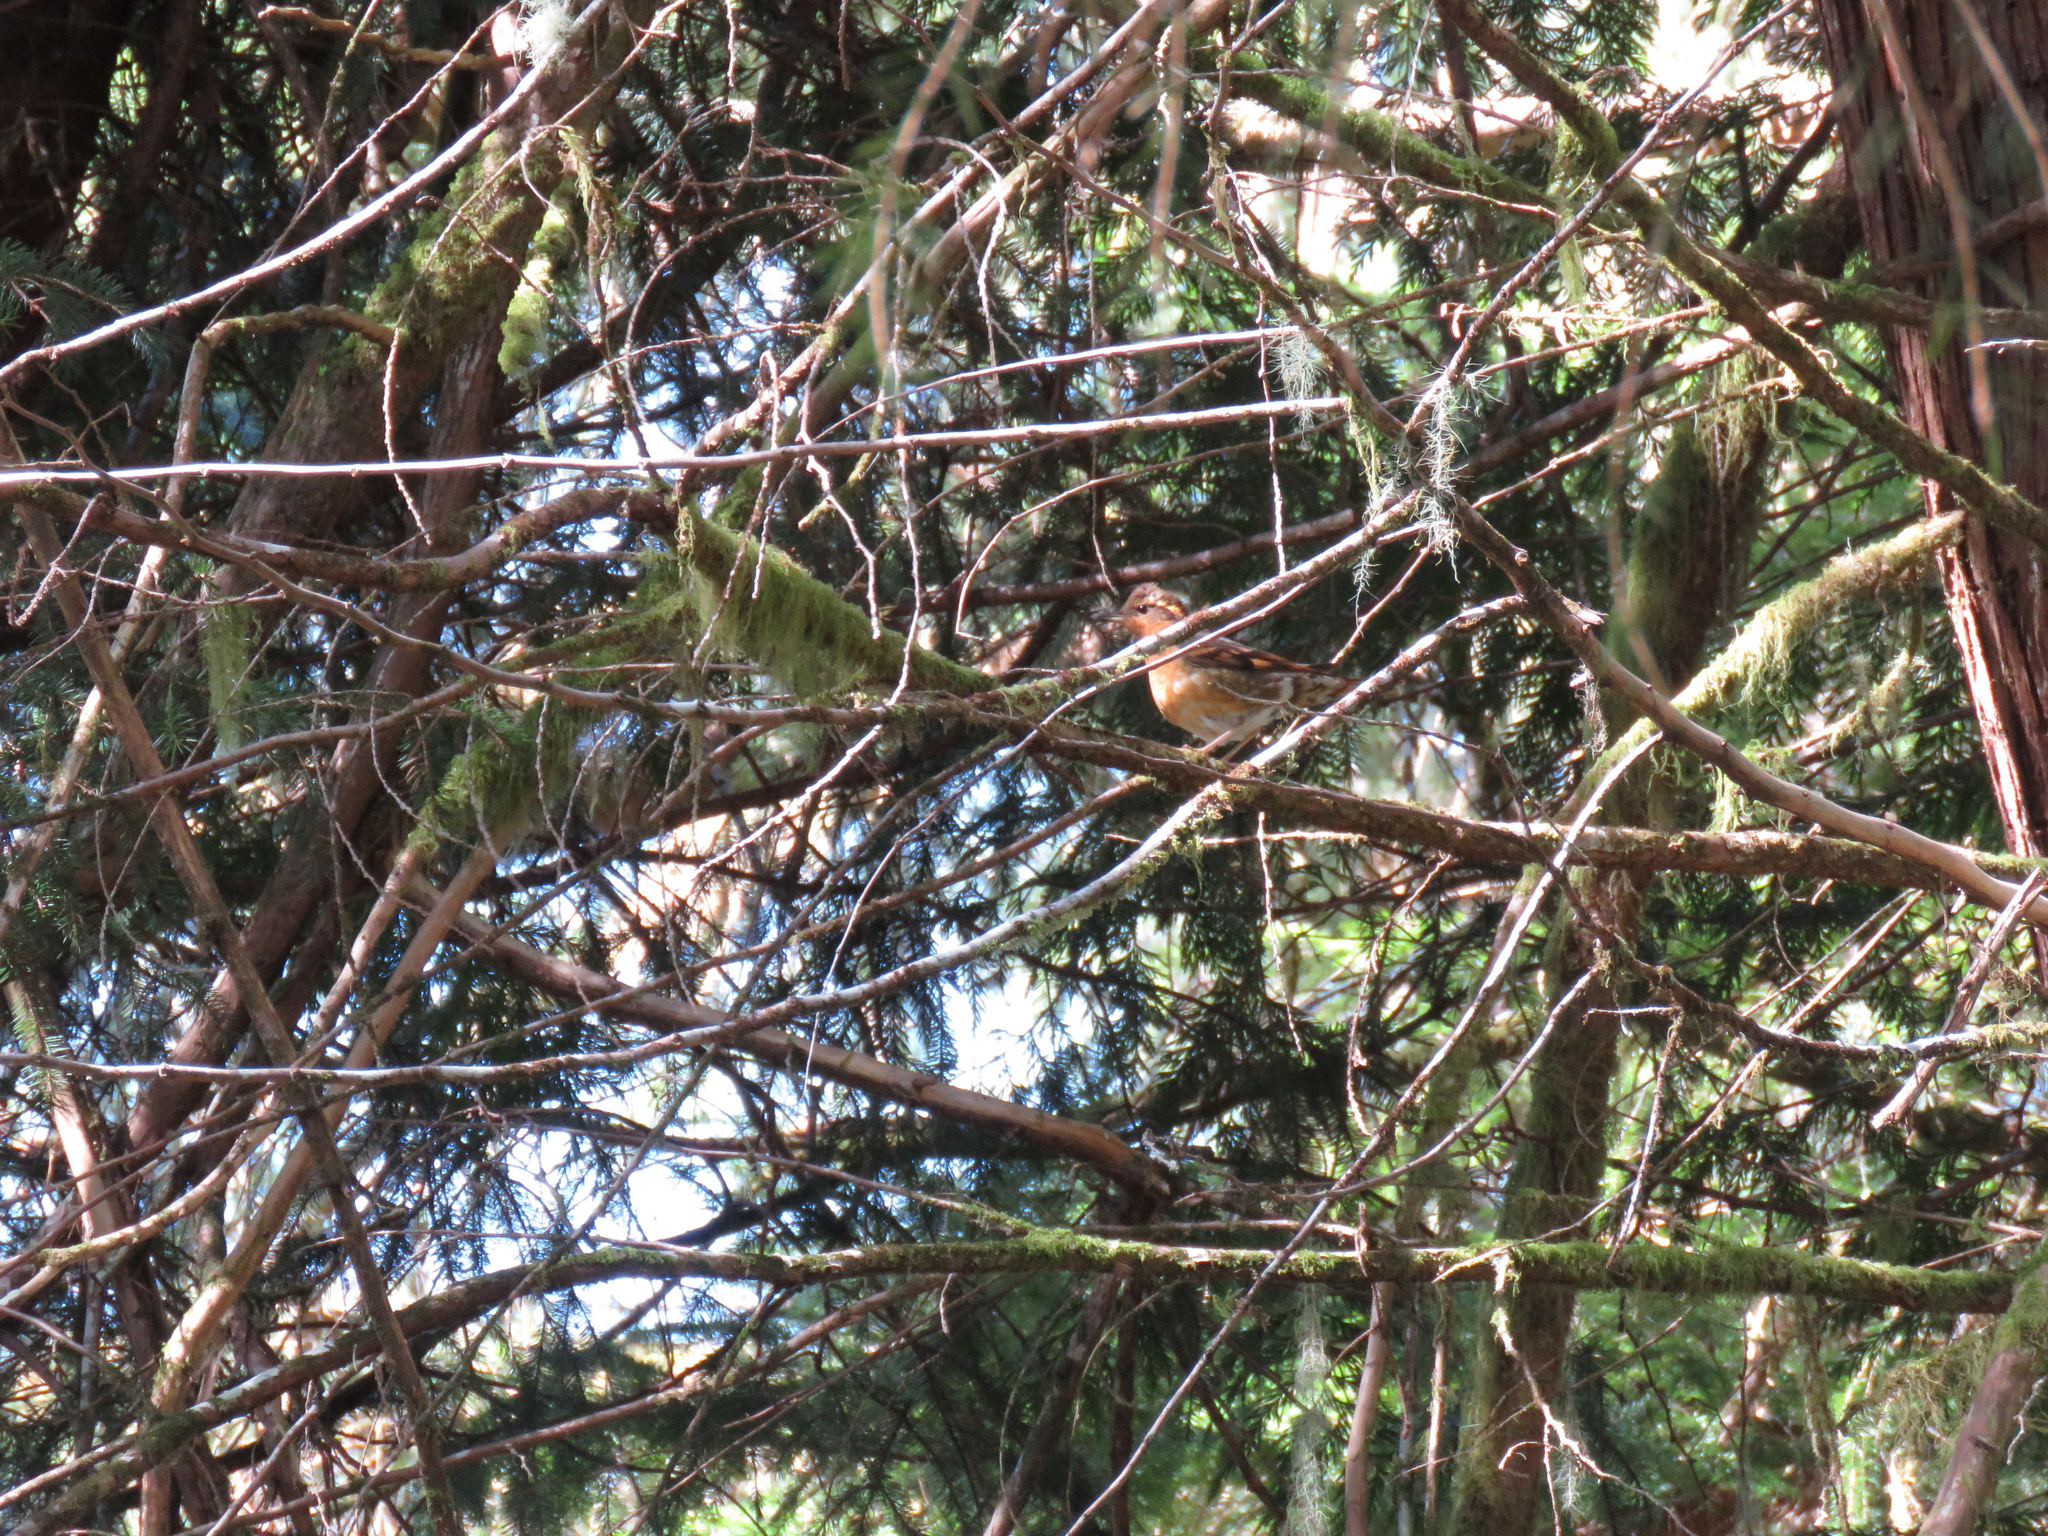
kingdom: Animalia
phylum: Chordata
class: Aves
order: Passeriformes
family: Turdidae
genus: Ixoreus
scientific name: Ixoreus naevius
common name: Varied thrush
